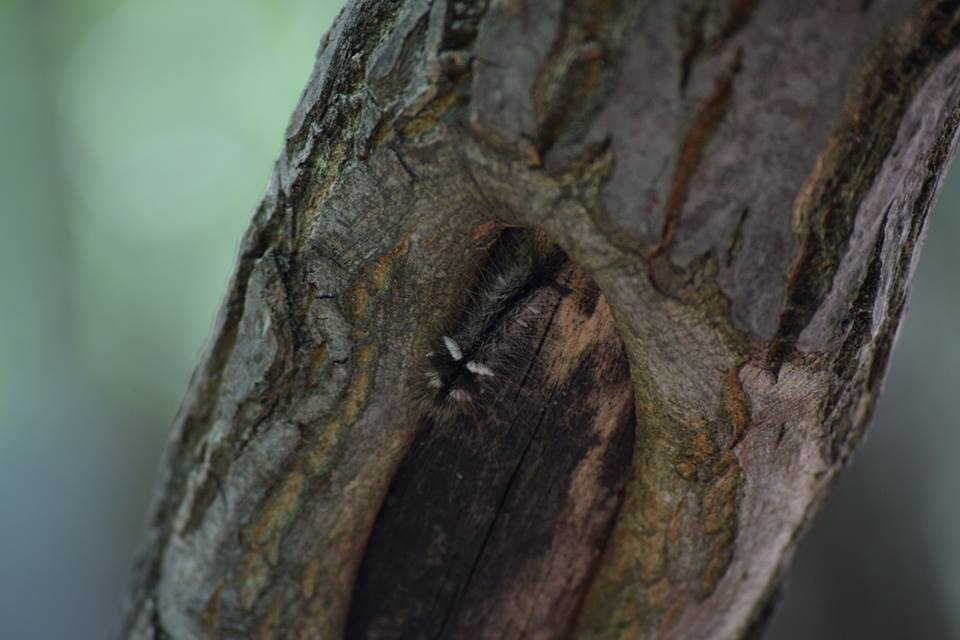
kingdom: Animalia
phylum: Arthropoda
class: Insecta
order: Lepidoptera
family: Noctuidae
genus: Acronicta
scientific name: Acronicta impleta
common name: Powdered dagger
